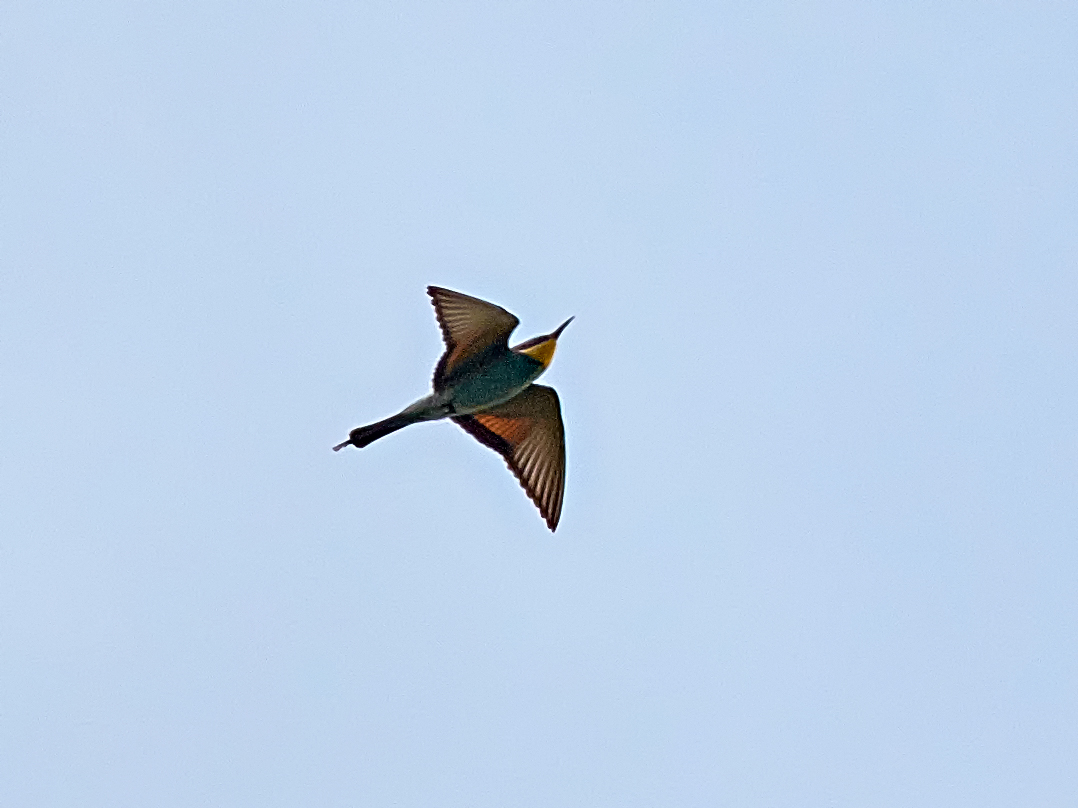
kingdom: Animalia
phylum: Chordata
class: Aves
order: Coraciiformes
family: Meropidae
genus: Merops
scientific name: Merops apiaster
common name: European bee-eater
